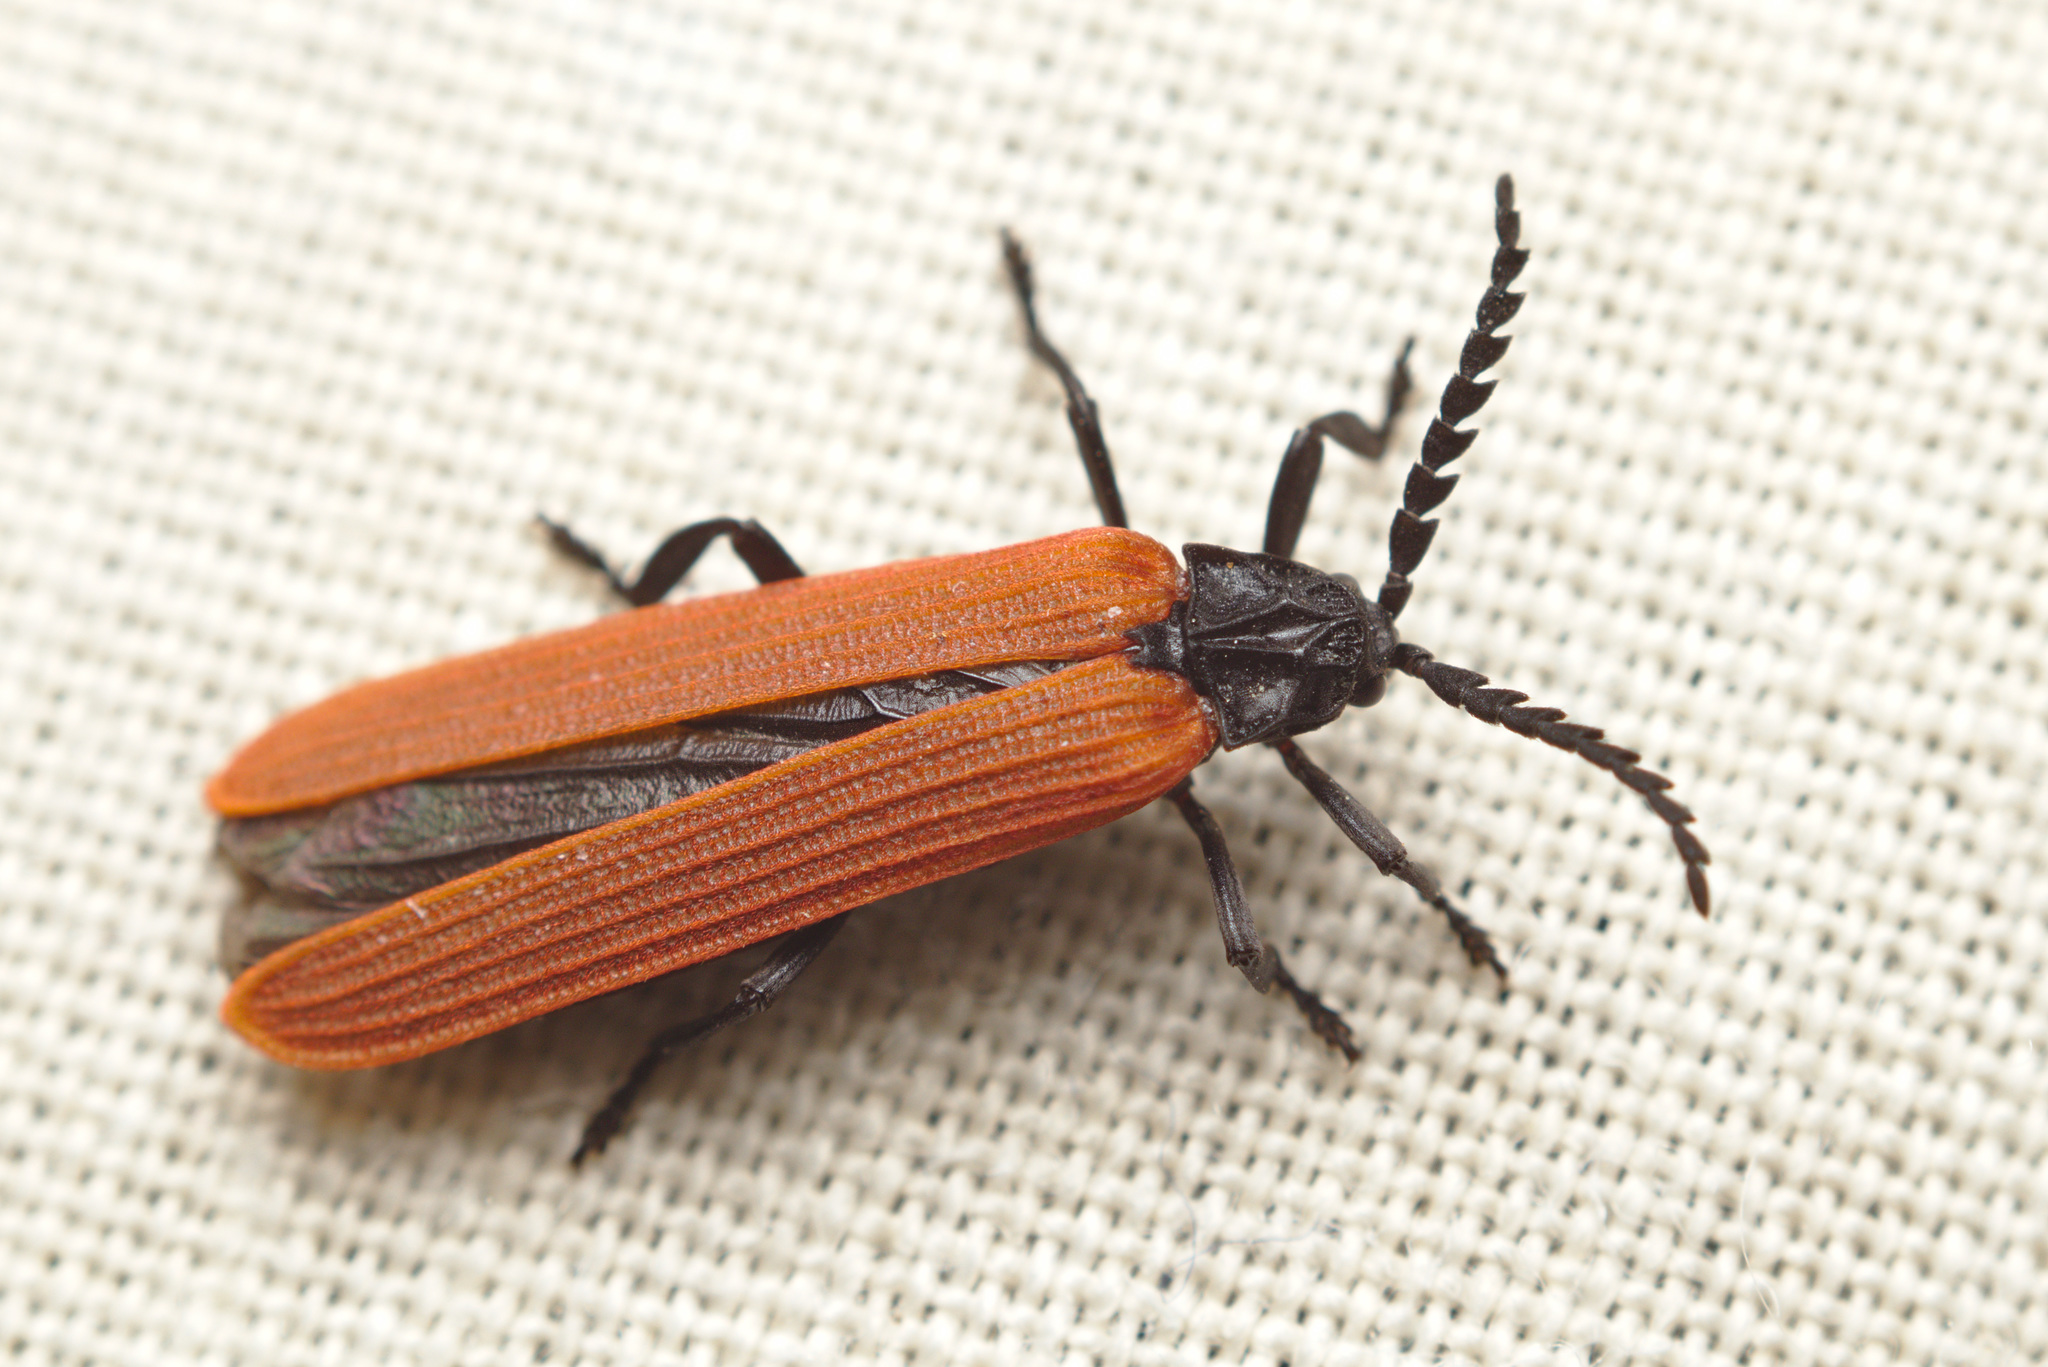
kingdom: Animalia
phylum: Arthropoda
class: Insecta
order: Coleoptera
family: Lycidae
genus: Porrostoma
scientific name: Porrostoma rufipenne
